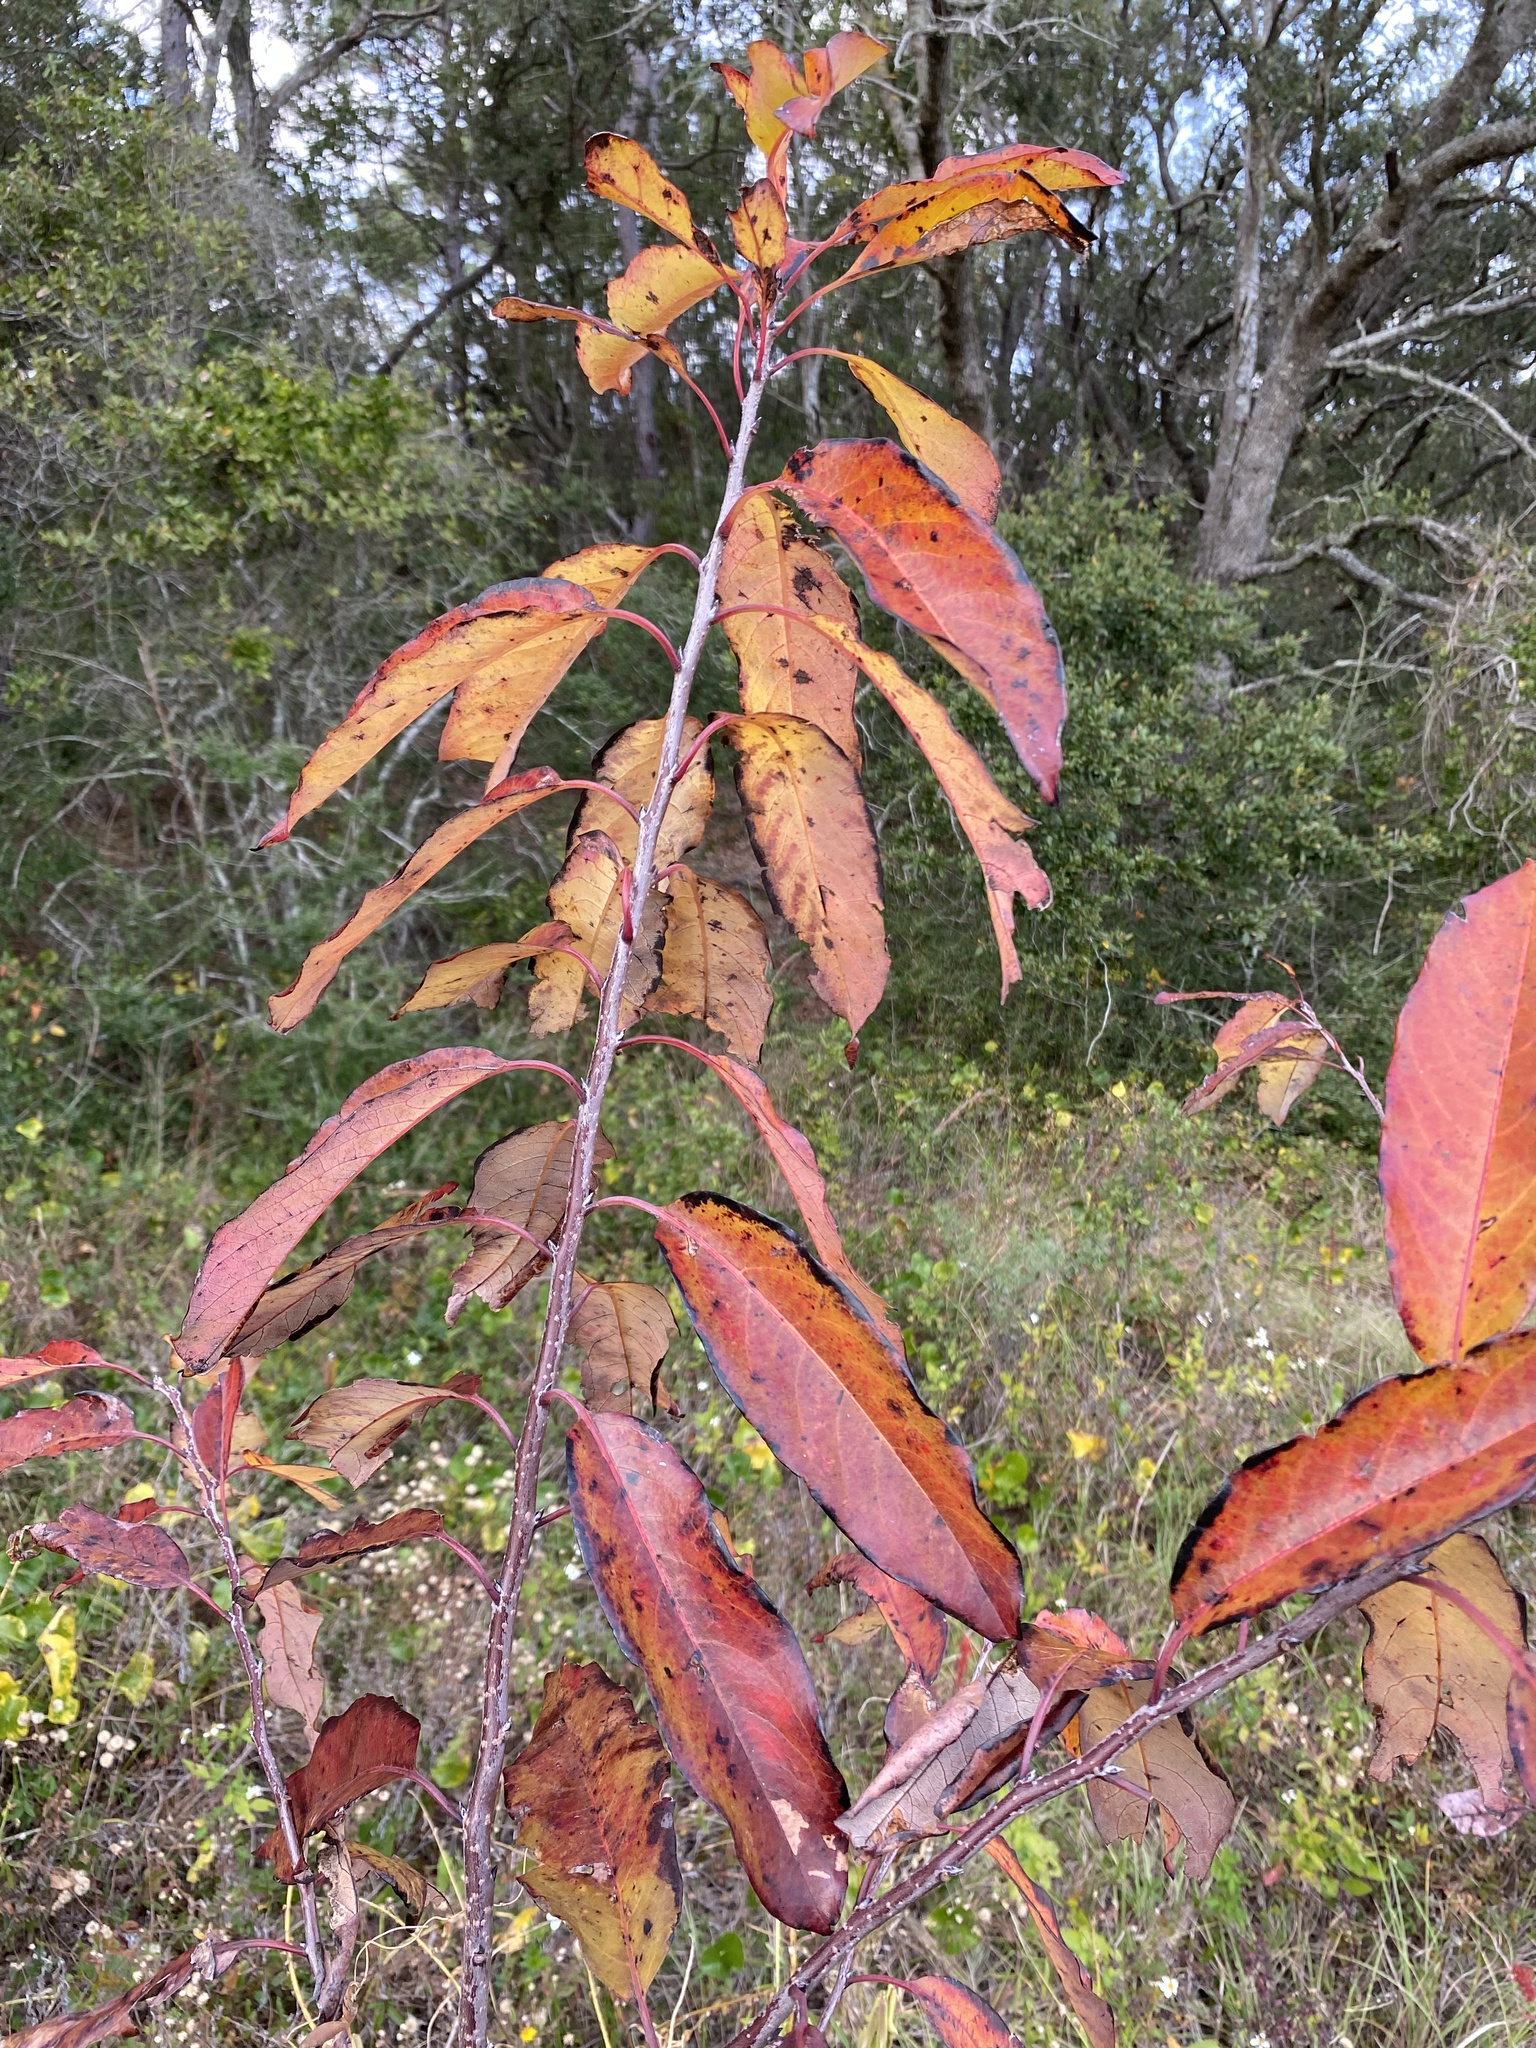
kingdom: Plantae
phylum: Tracheophyta
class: Magnoliopsida
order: Ericales
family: Ebenaceae
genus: Diospyros
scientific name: Diospyros virginiana
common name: Persimmon
